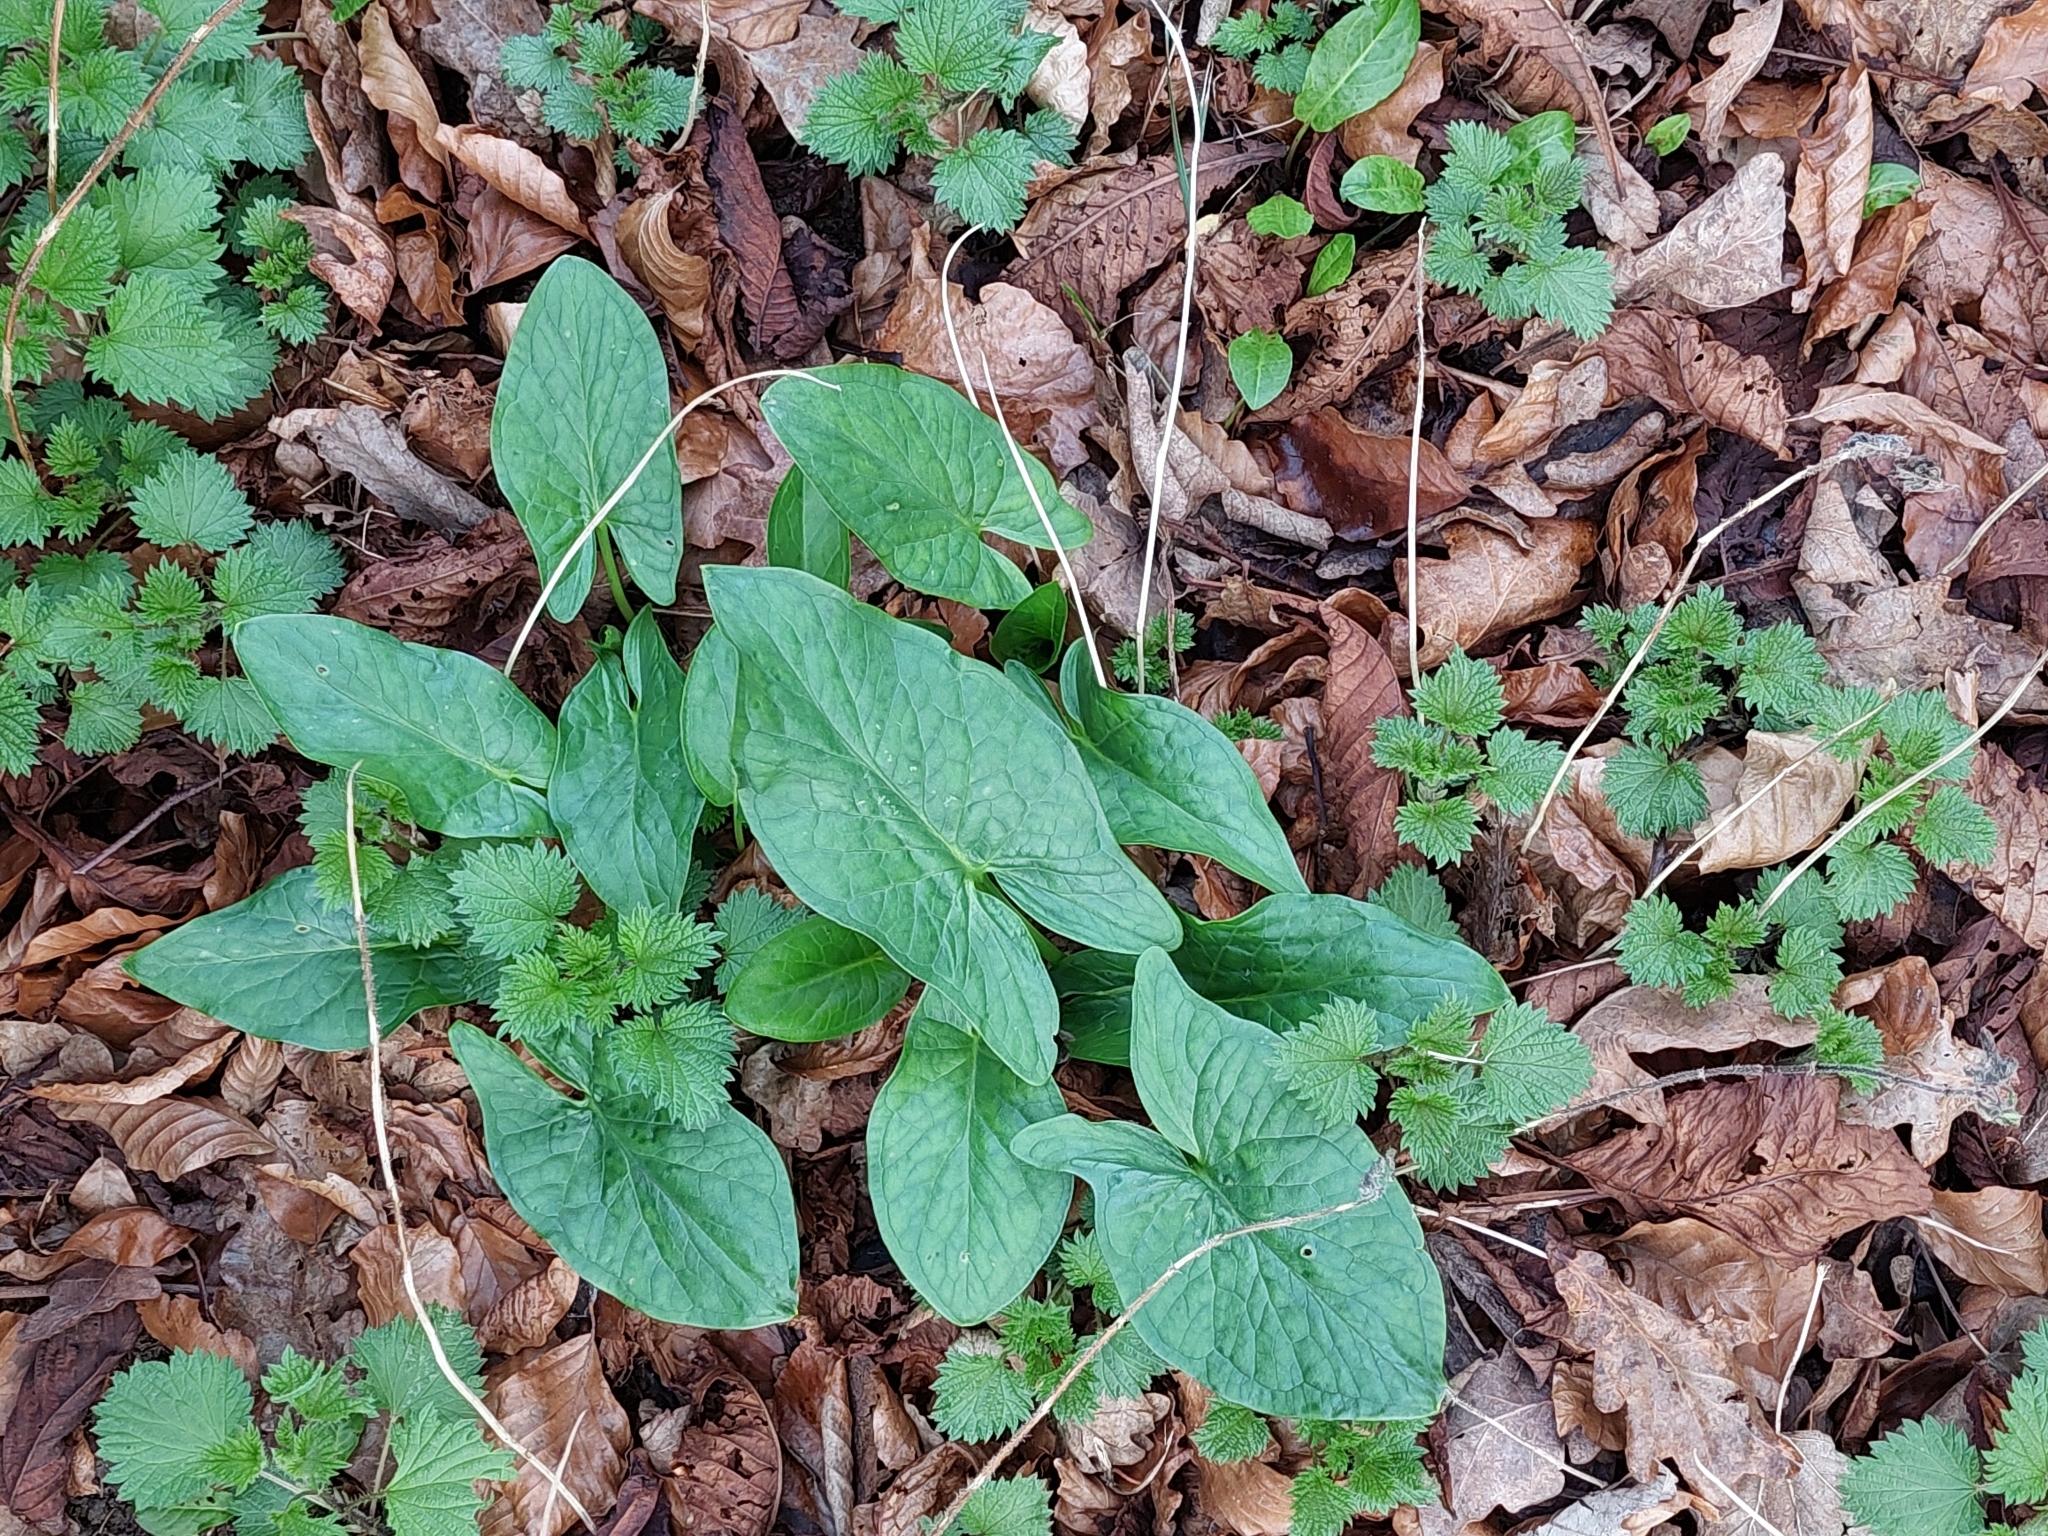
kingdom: Plantae
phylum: Tracheophyta
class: Liliopsida
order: Alismatales
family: Araceae
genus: Arum
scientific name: Arum maculatum
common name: Lords-and-ladies
